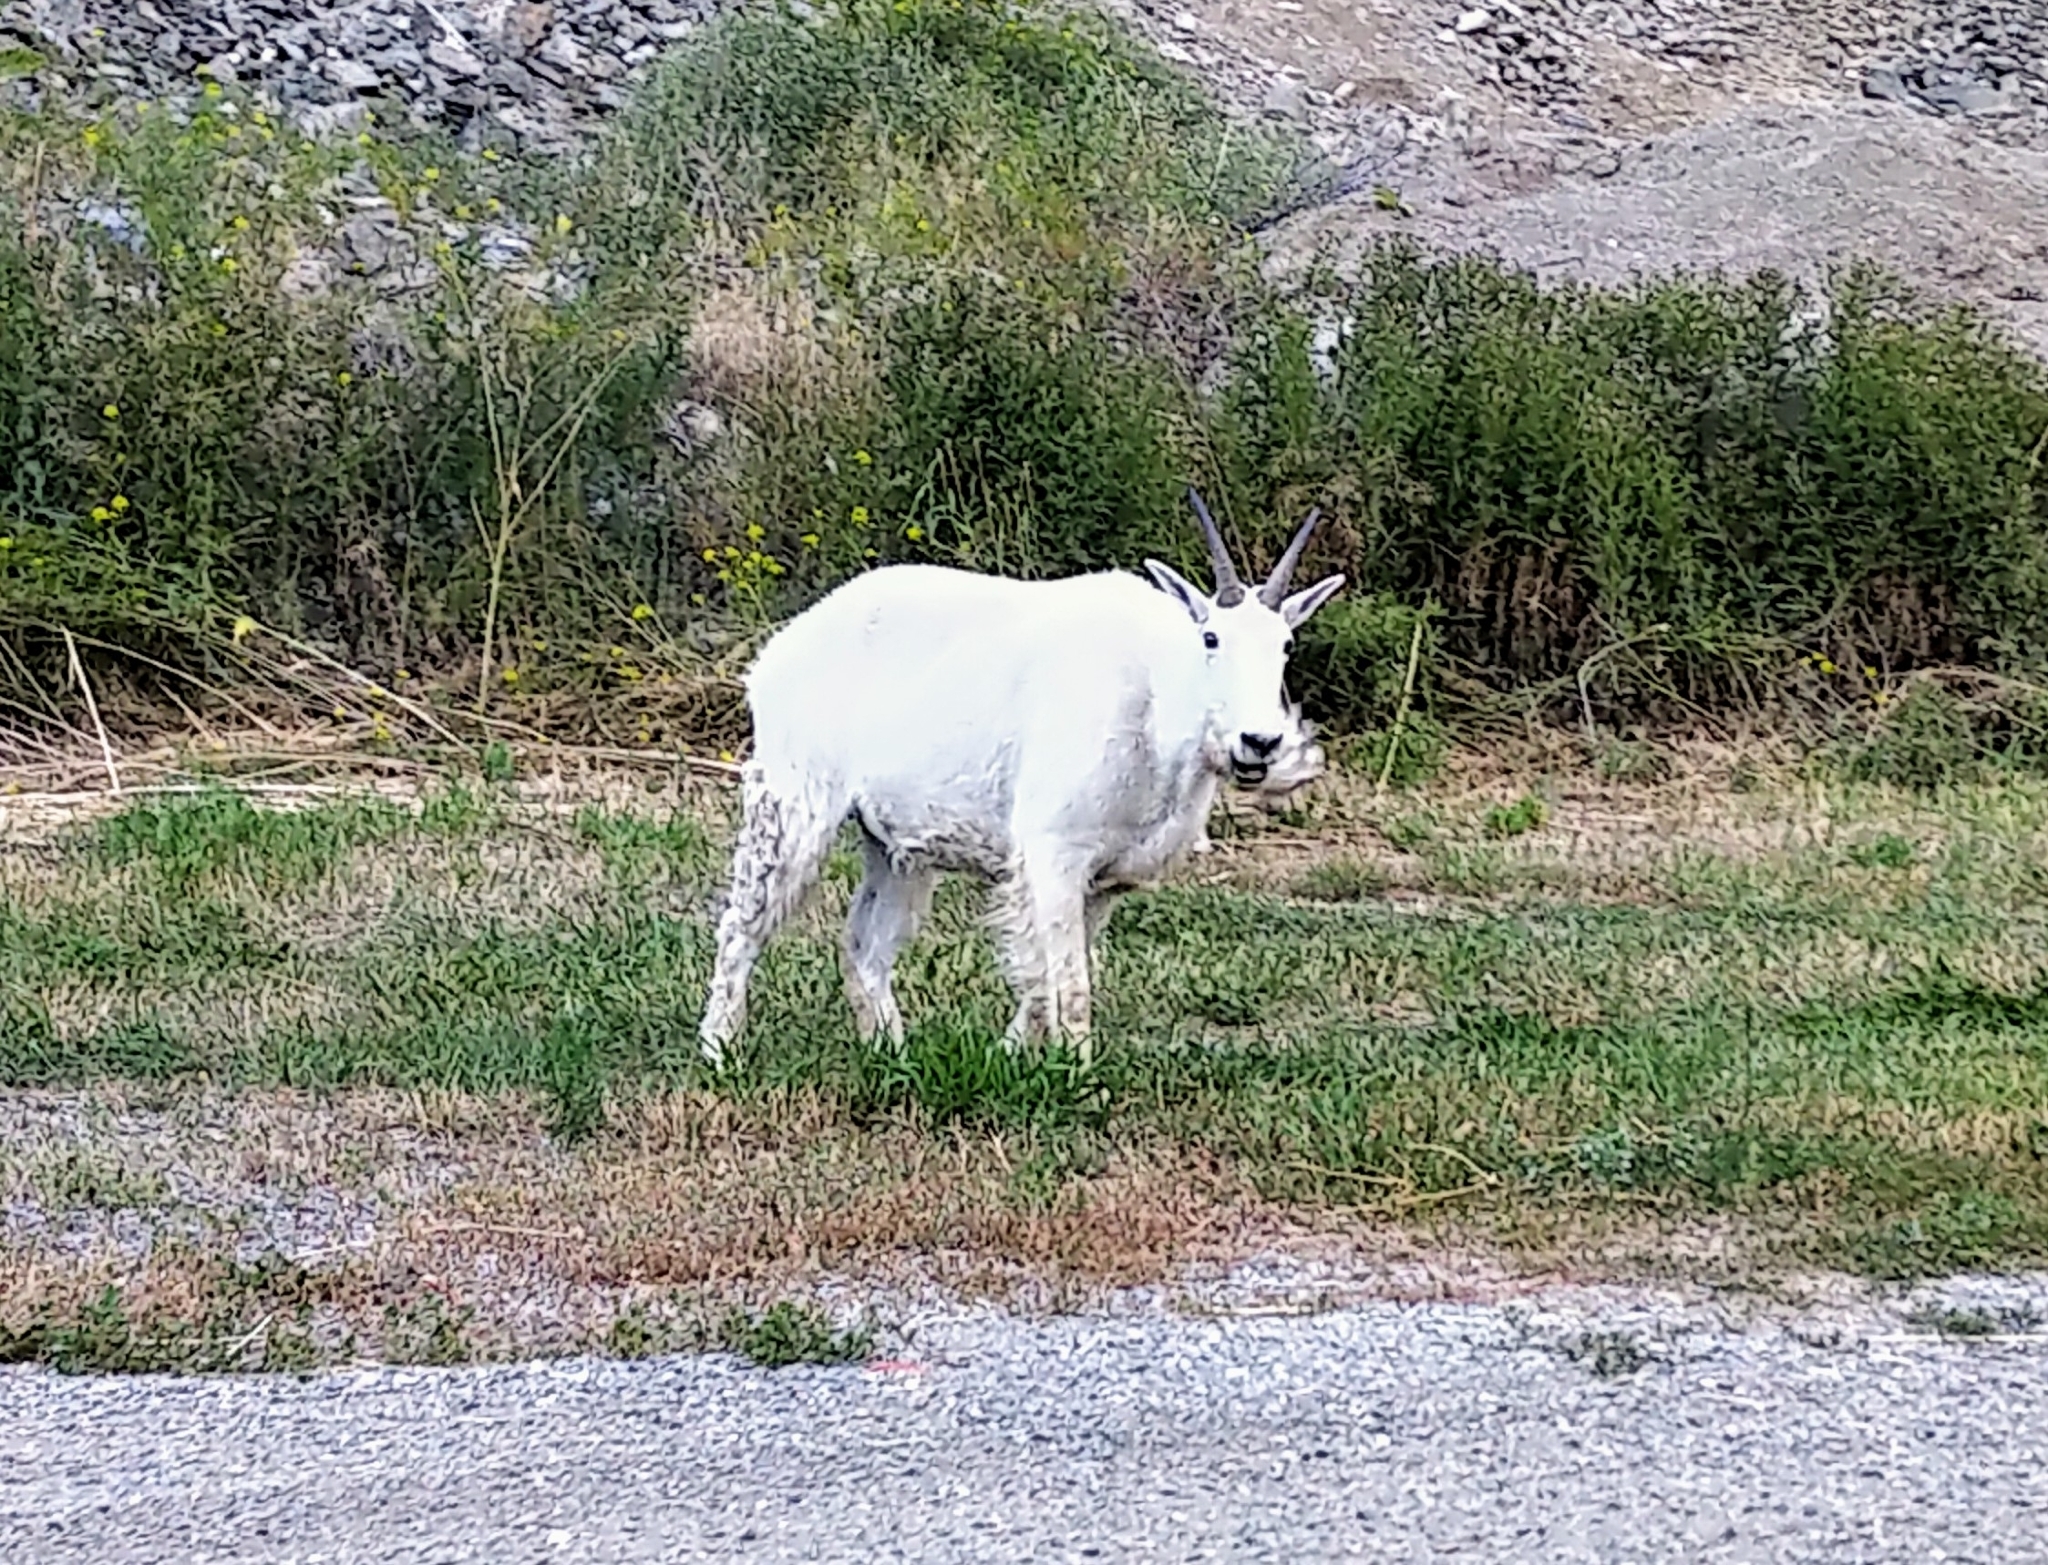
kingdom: Animalia
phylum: Chordata
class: Mammalia
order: Artiodactyla
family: Bovidae
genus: Oreamnos
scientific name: Oreamnos americanus
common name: Mountain goat
